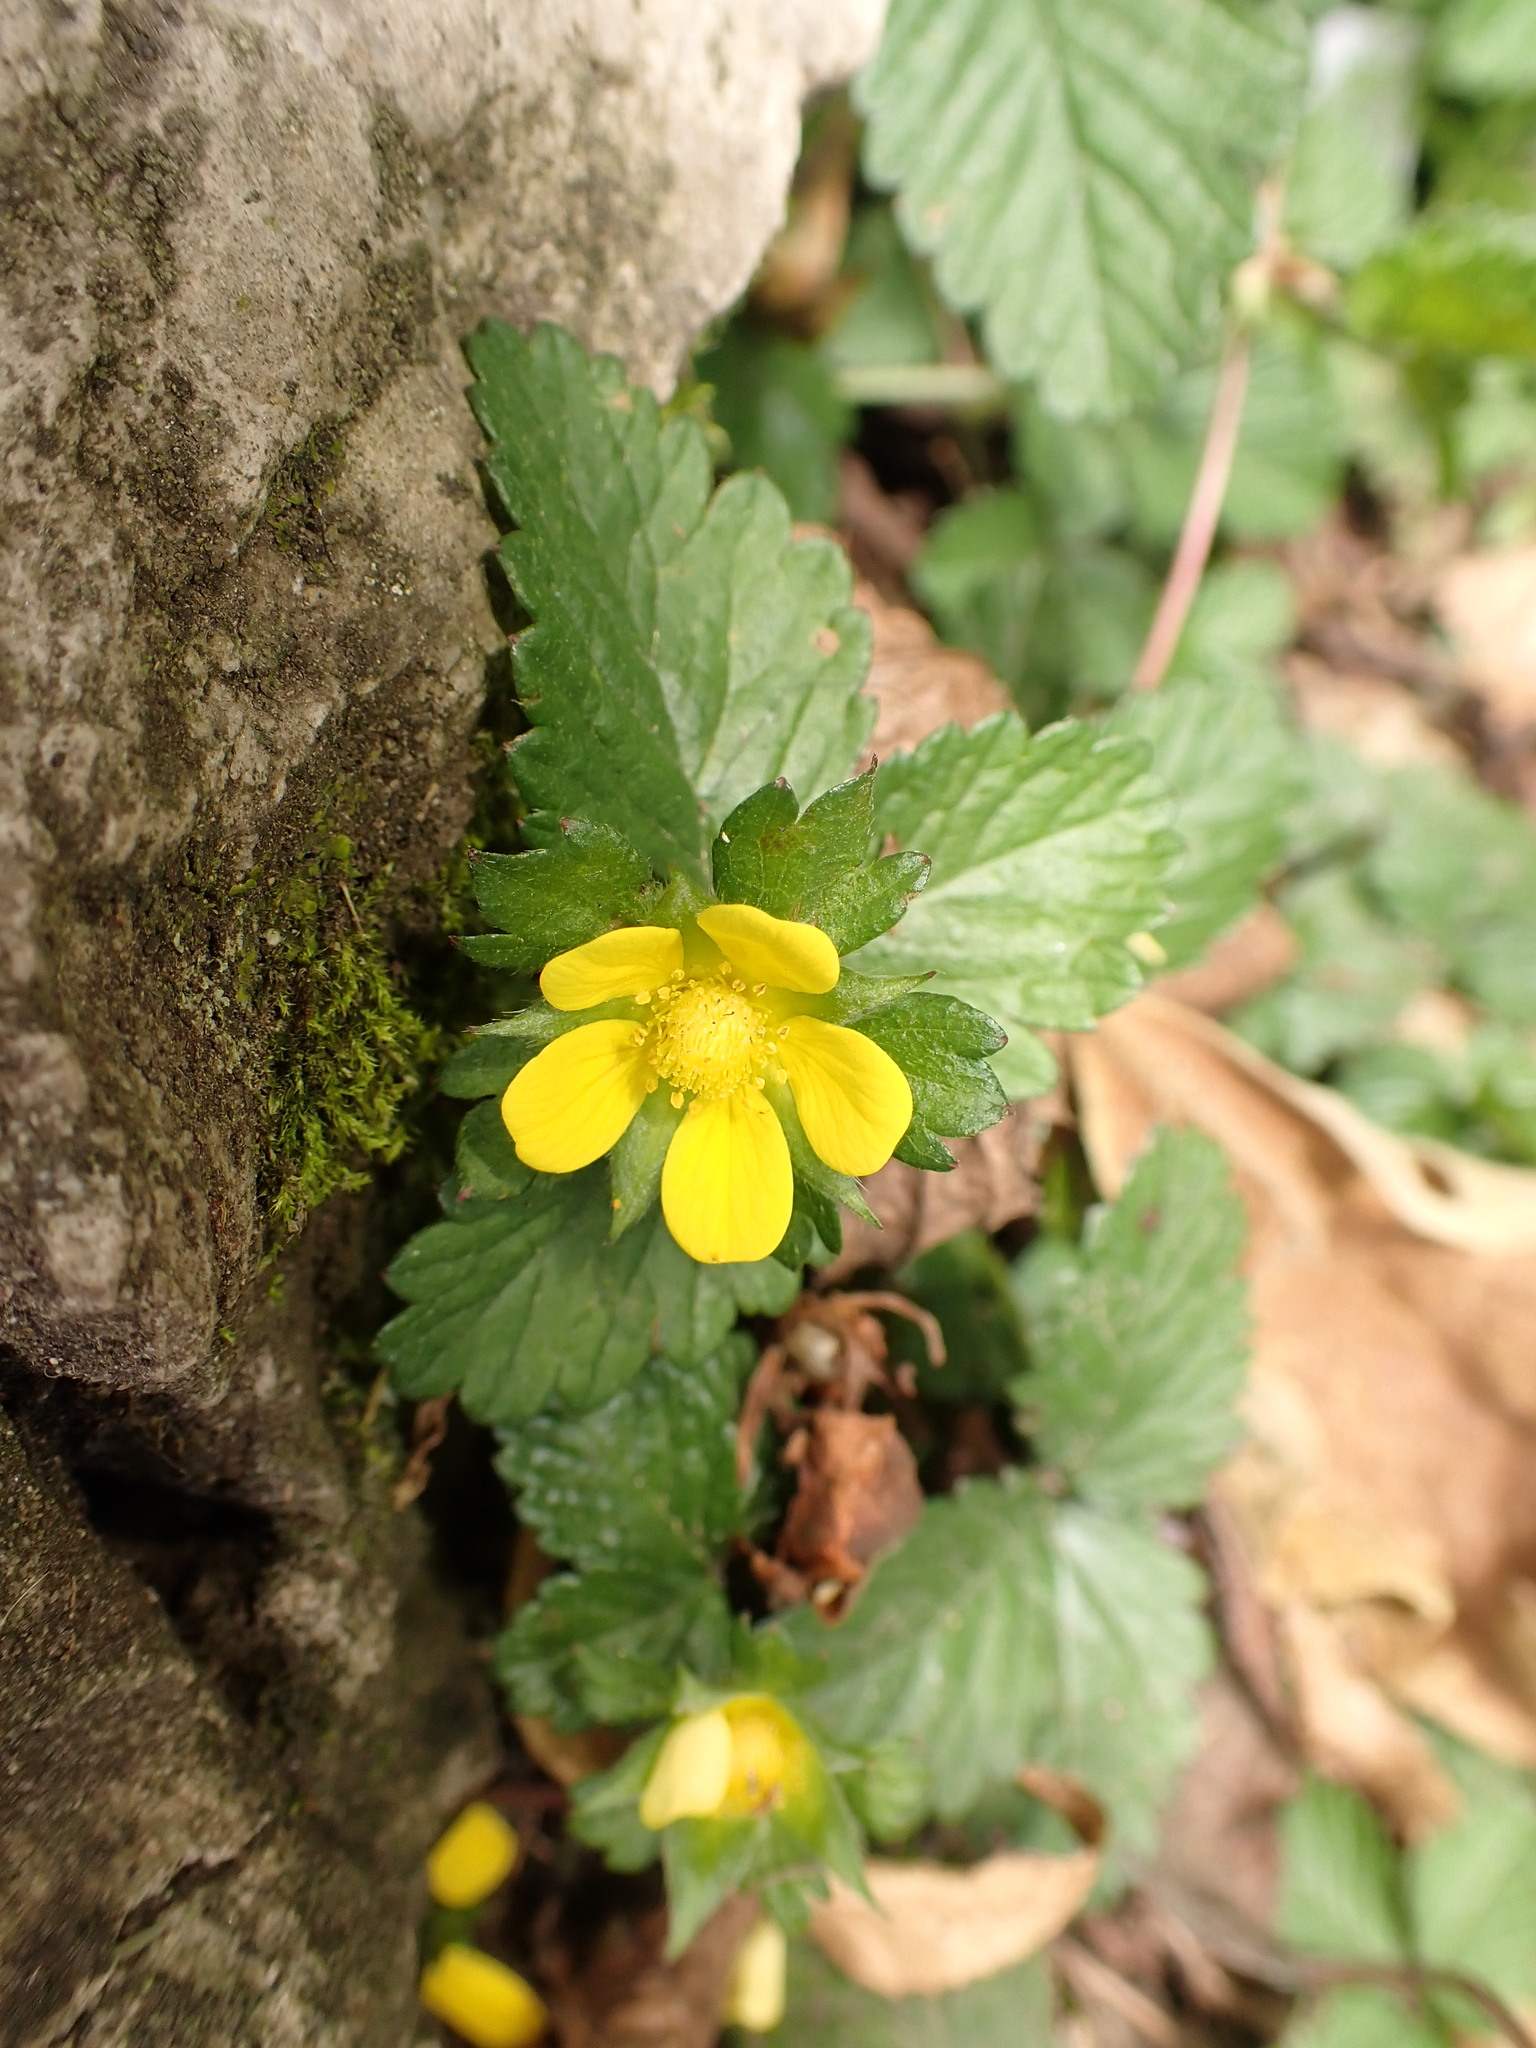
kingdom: Plantae
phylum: Tracheophyta
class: Magnoliopsida
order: Rosales
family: Rosaceae
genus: Potentilla
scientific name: Potentilla indica
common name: Yellow-flowered strawberry
